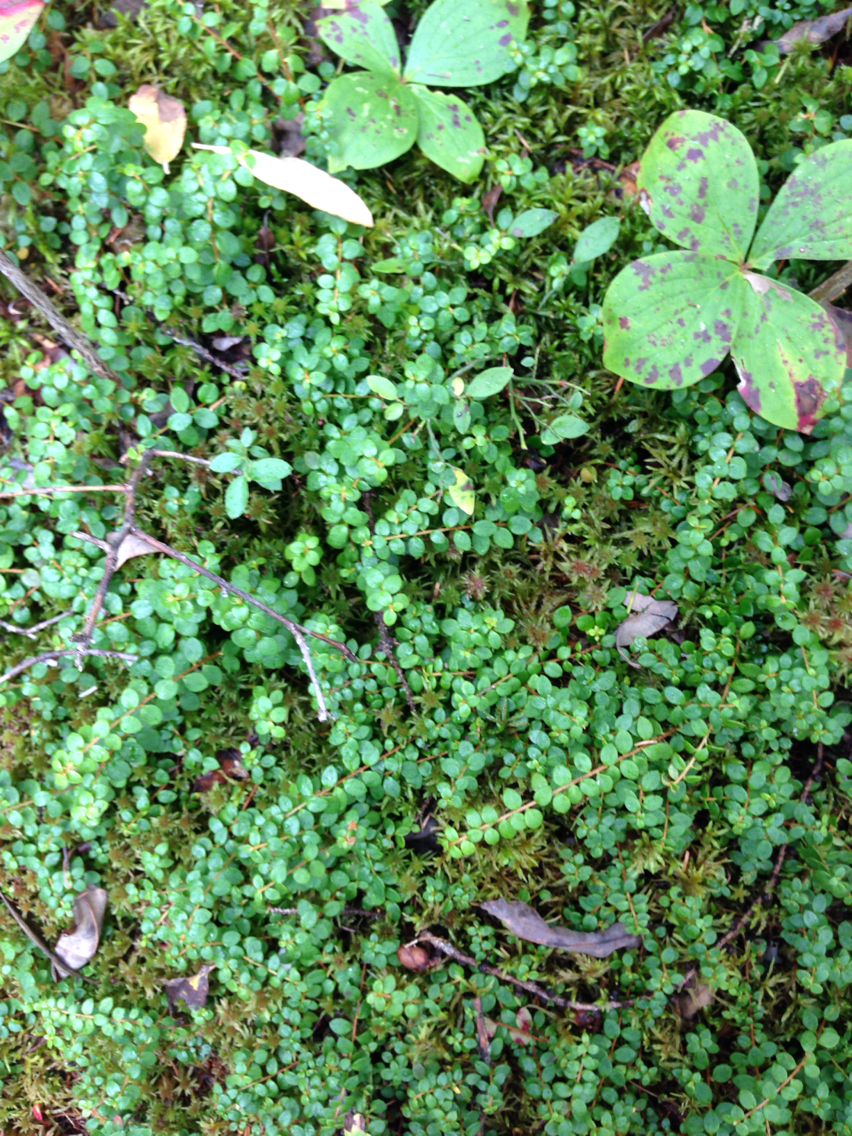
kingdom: Plantae
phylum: Tracheophyta
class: Magnoliopsida
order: Ericales
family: Ericaceae
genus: Gaultheria
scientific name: Gaultheria hispidula
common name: Cancer wintergreen
